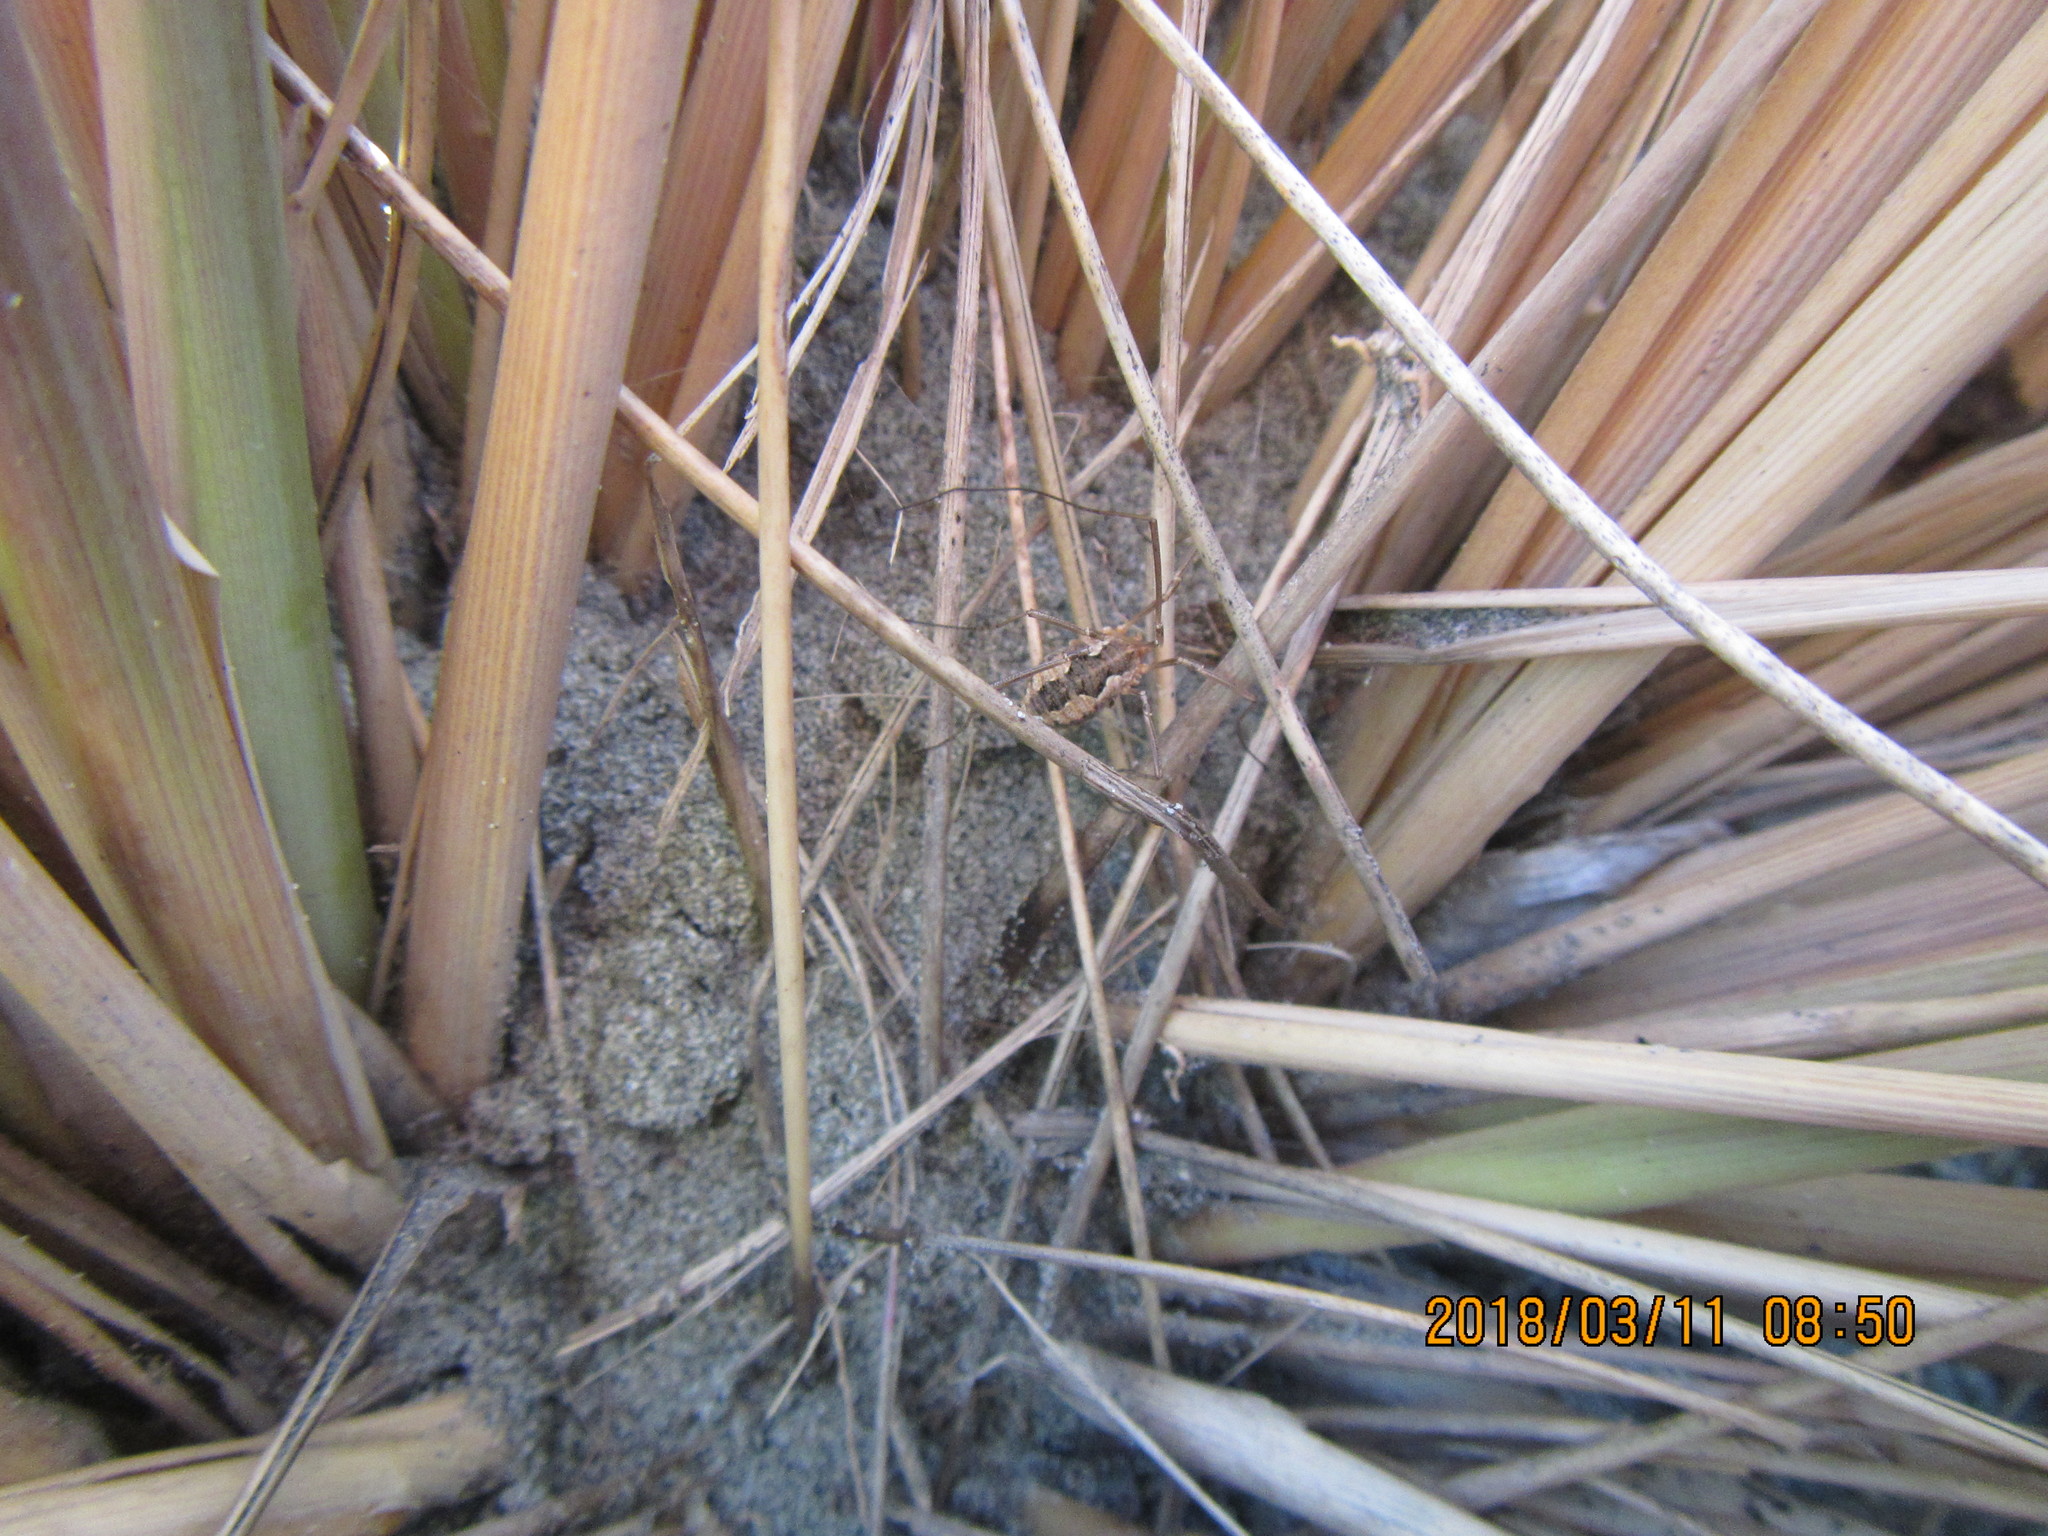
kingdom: Animalia
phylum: Arthropoda
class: Arachnida
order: Opiliones
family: Phalangiidae
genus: Phalangium
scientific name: Phalangium opilio
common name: Daddy longleg
